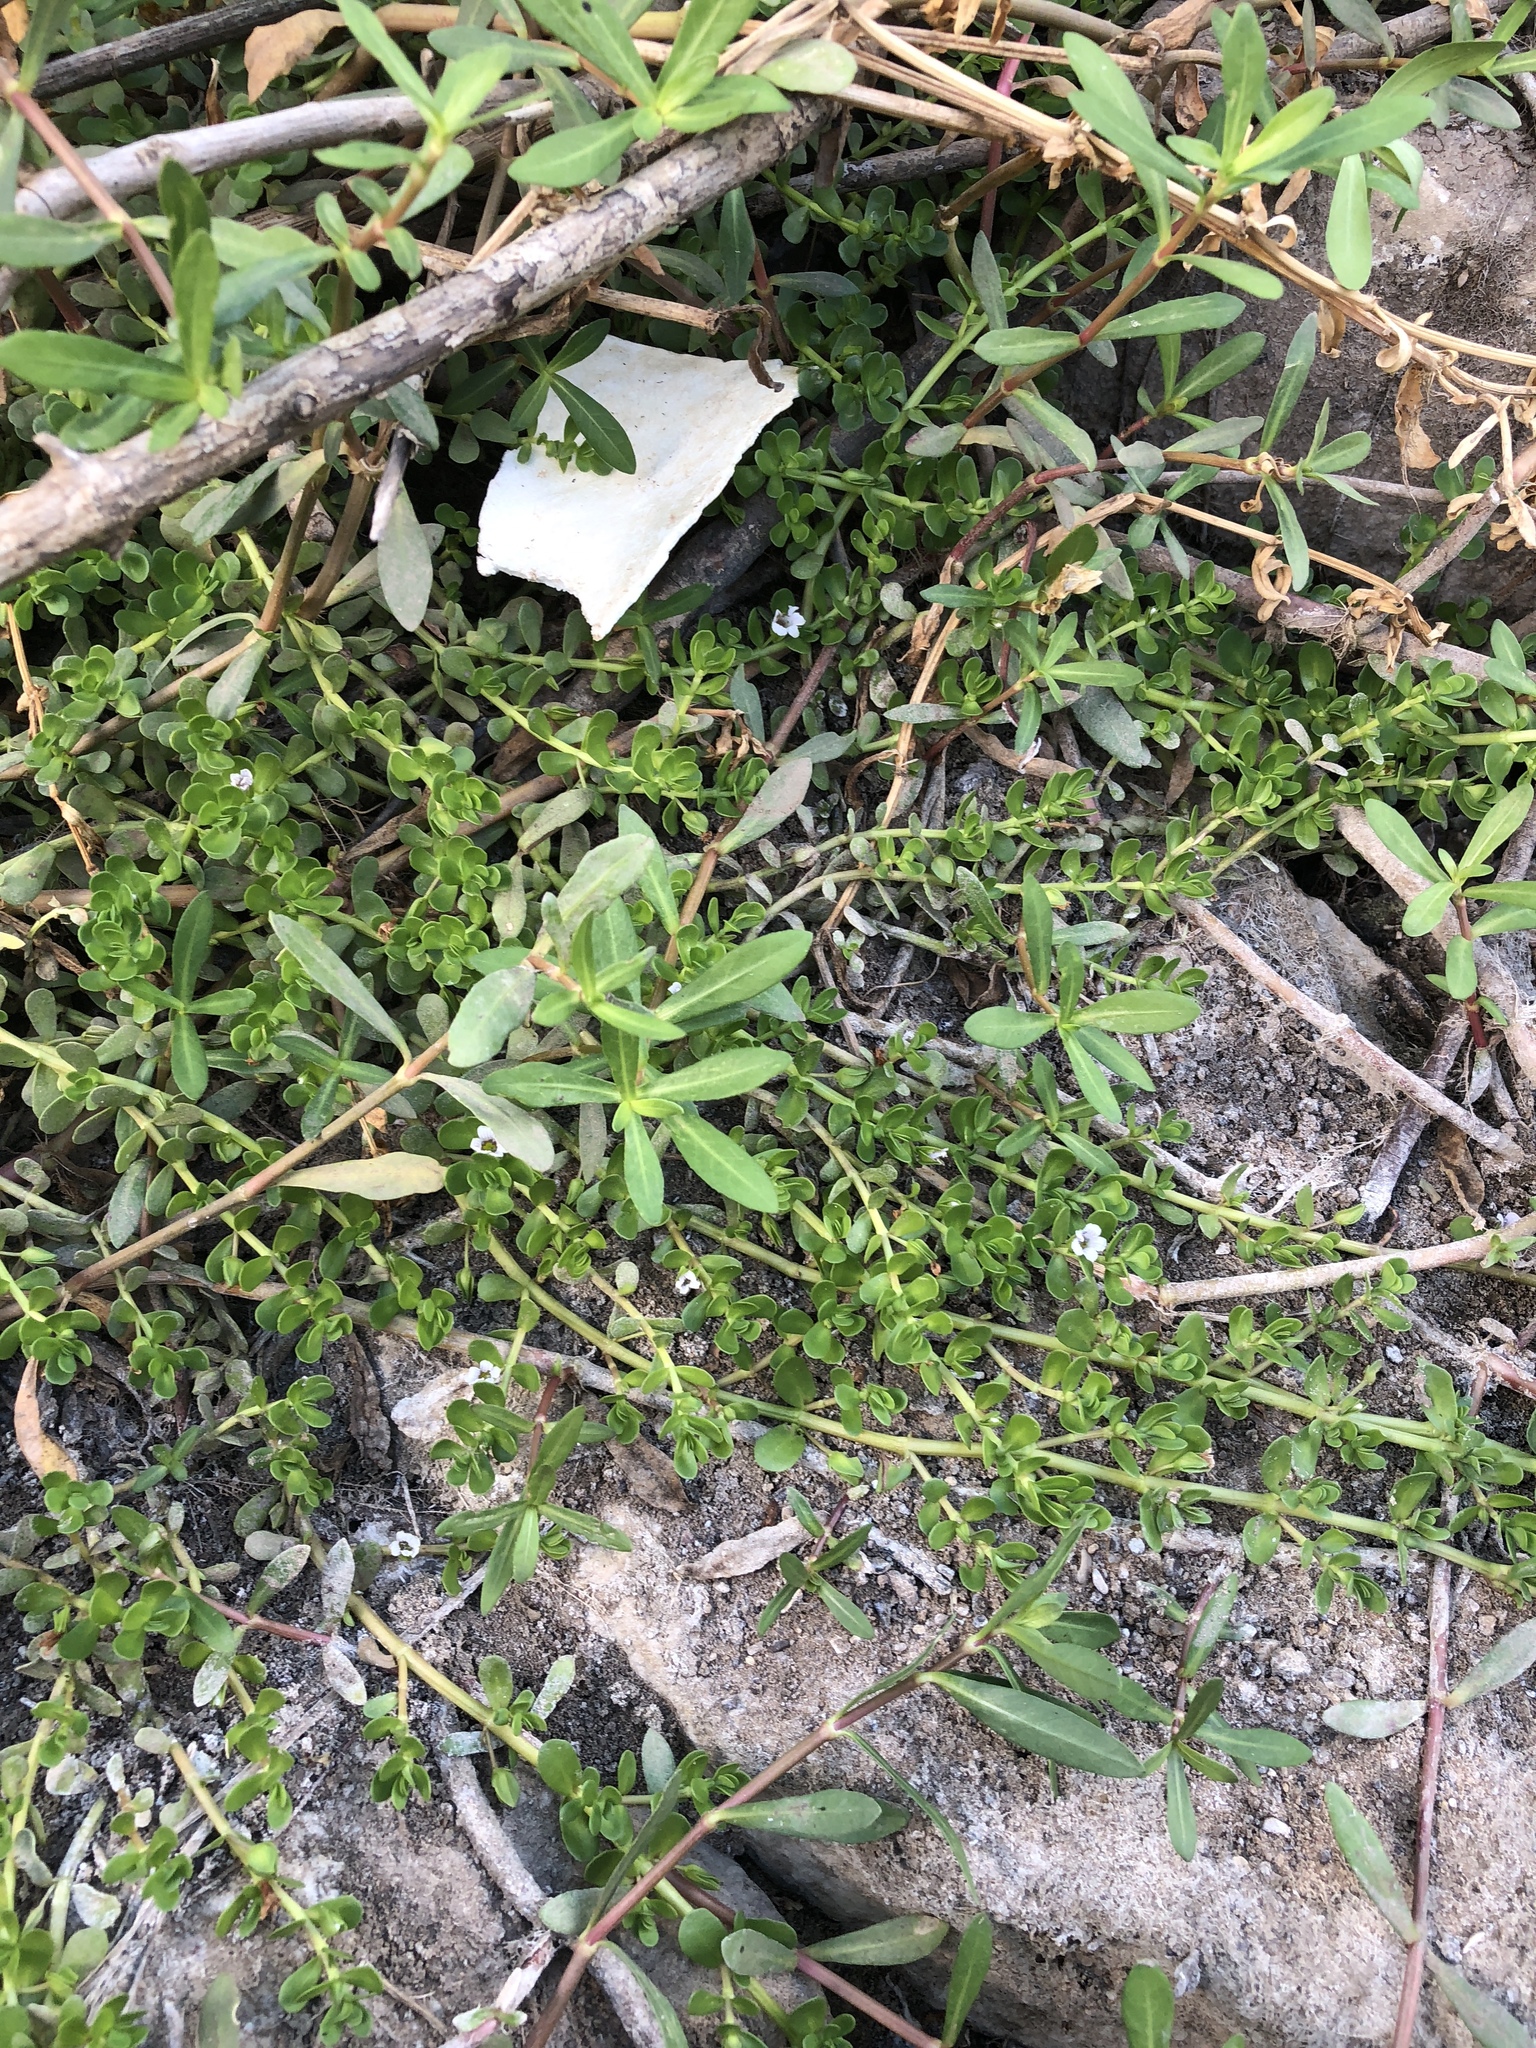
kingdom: Plantae
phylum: Tracheophyta
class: Magnoliopsida
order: Lamiales
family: Plantaginaceae
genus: Bacopa
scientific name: Bacopa monnieri
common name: Indian-pennywort
